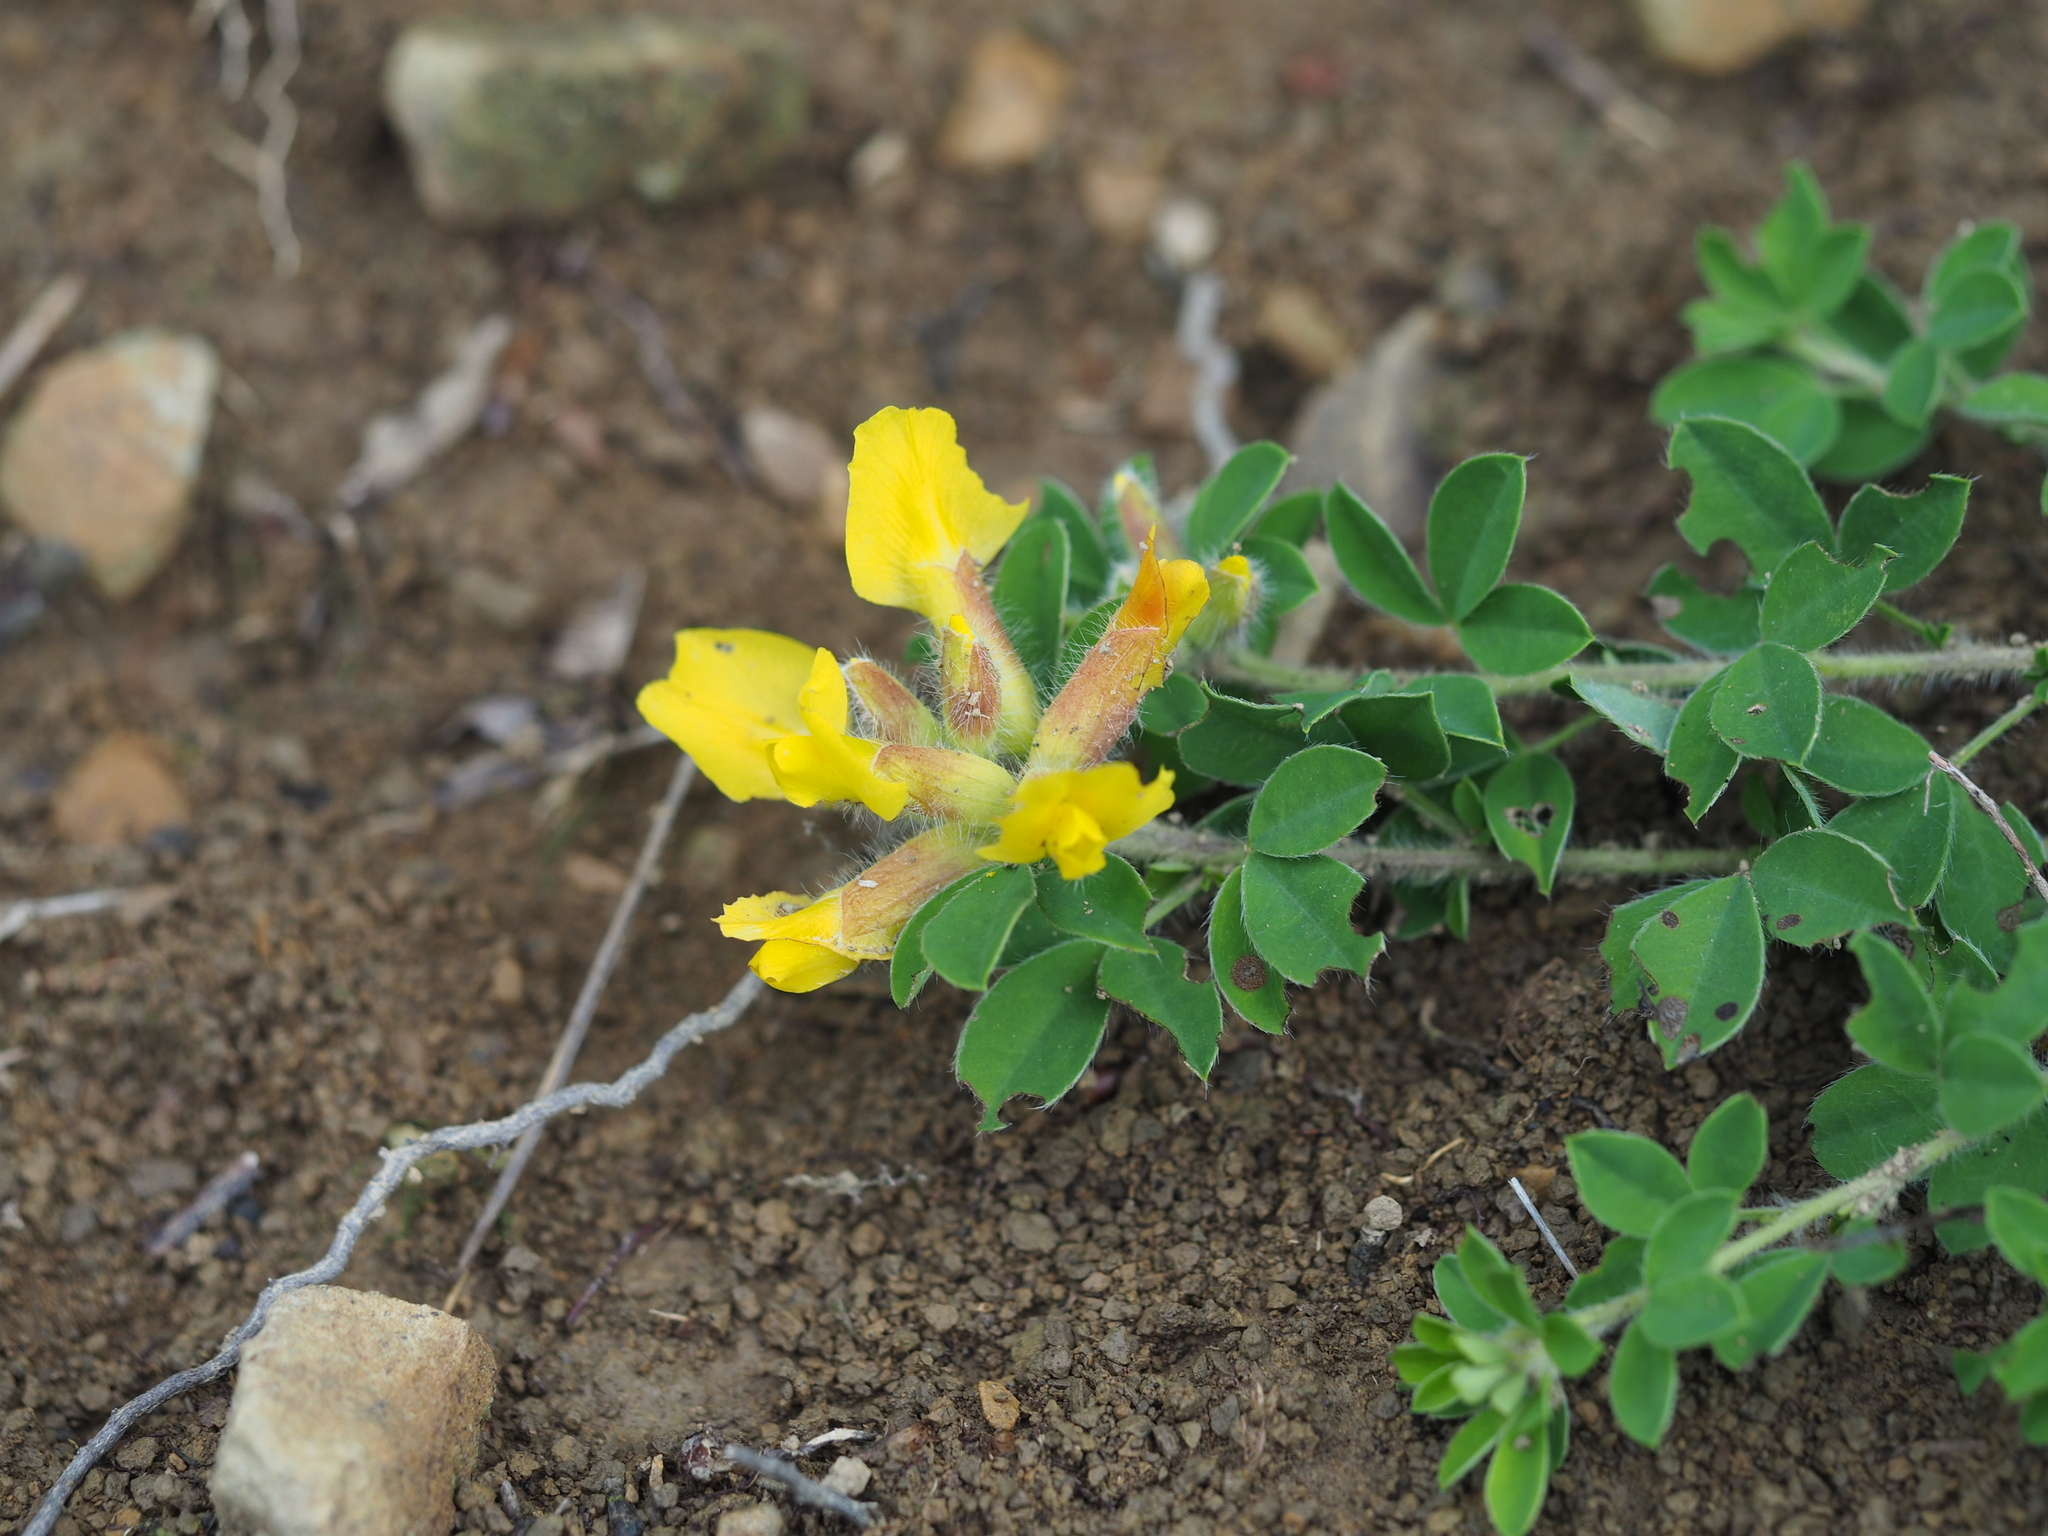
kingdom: Plantae
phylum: Tracheophyta
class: Magnoliopsida
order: Fabales
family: Fabaceae
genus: Chamaecytisus
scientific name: Chamaecytisus supinus
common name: Clustered broom
